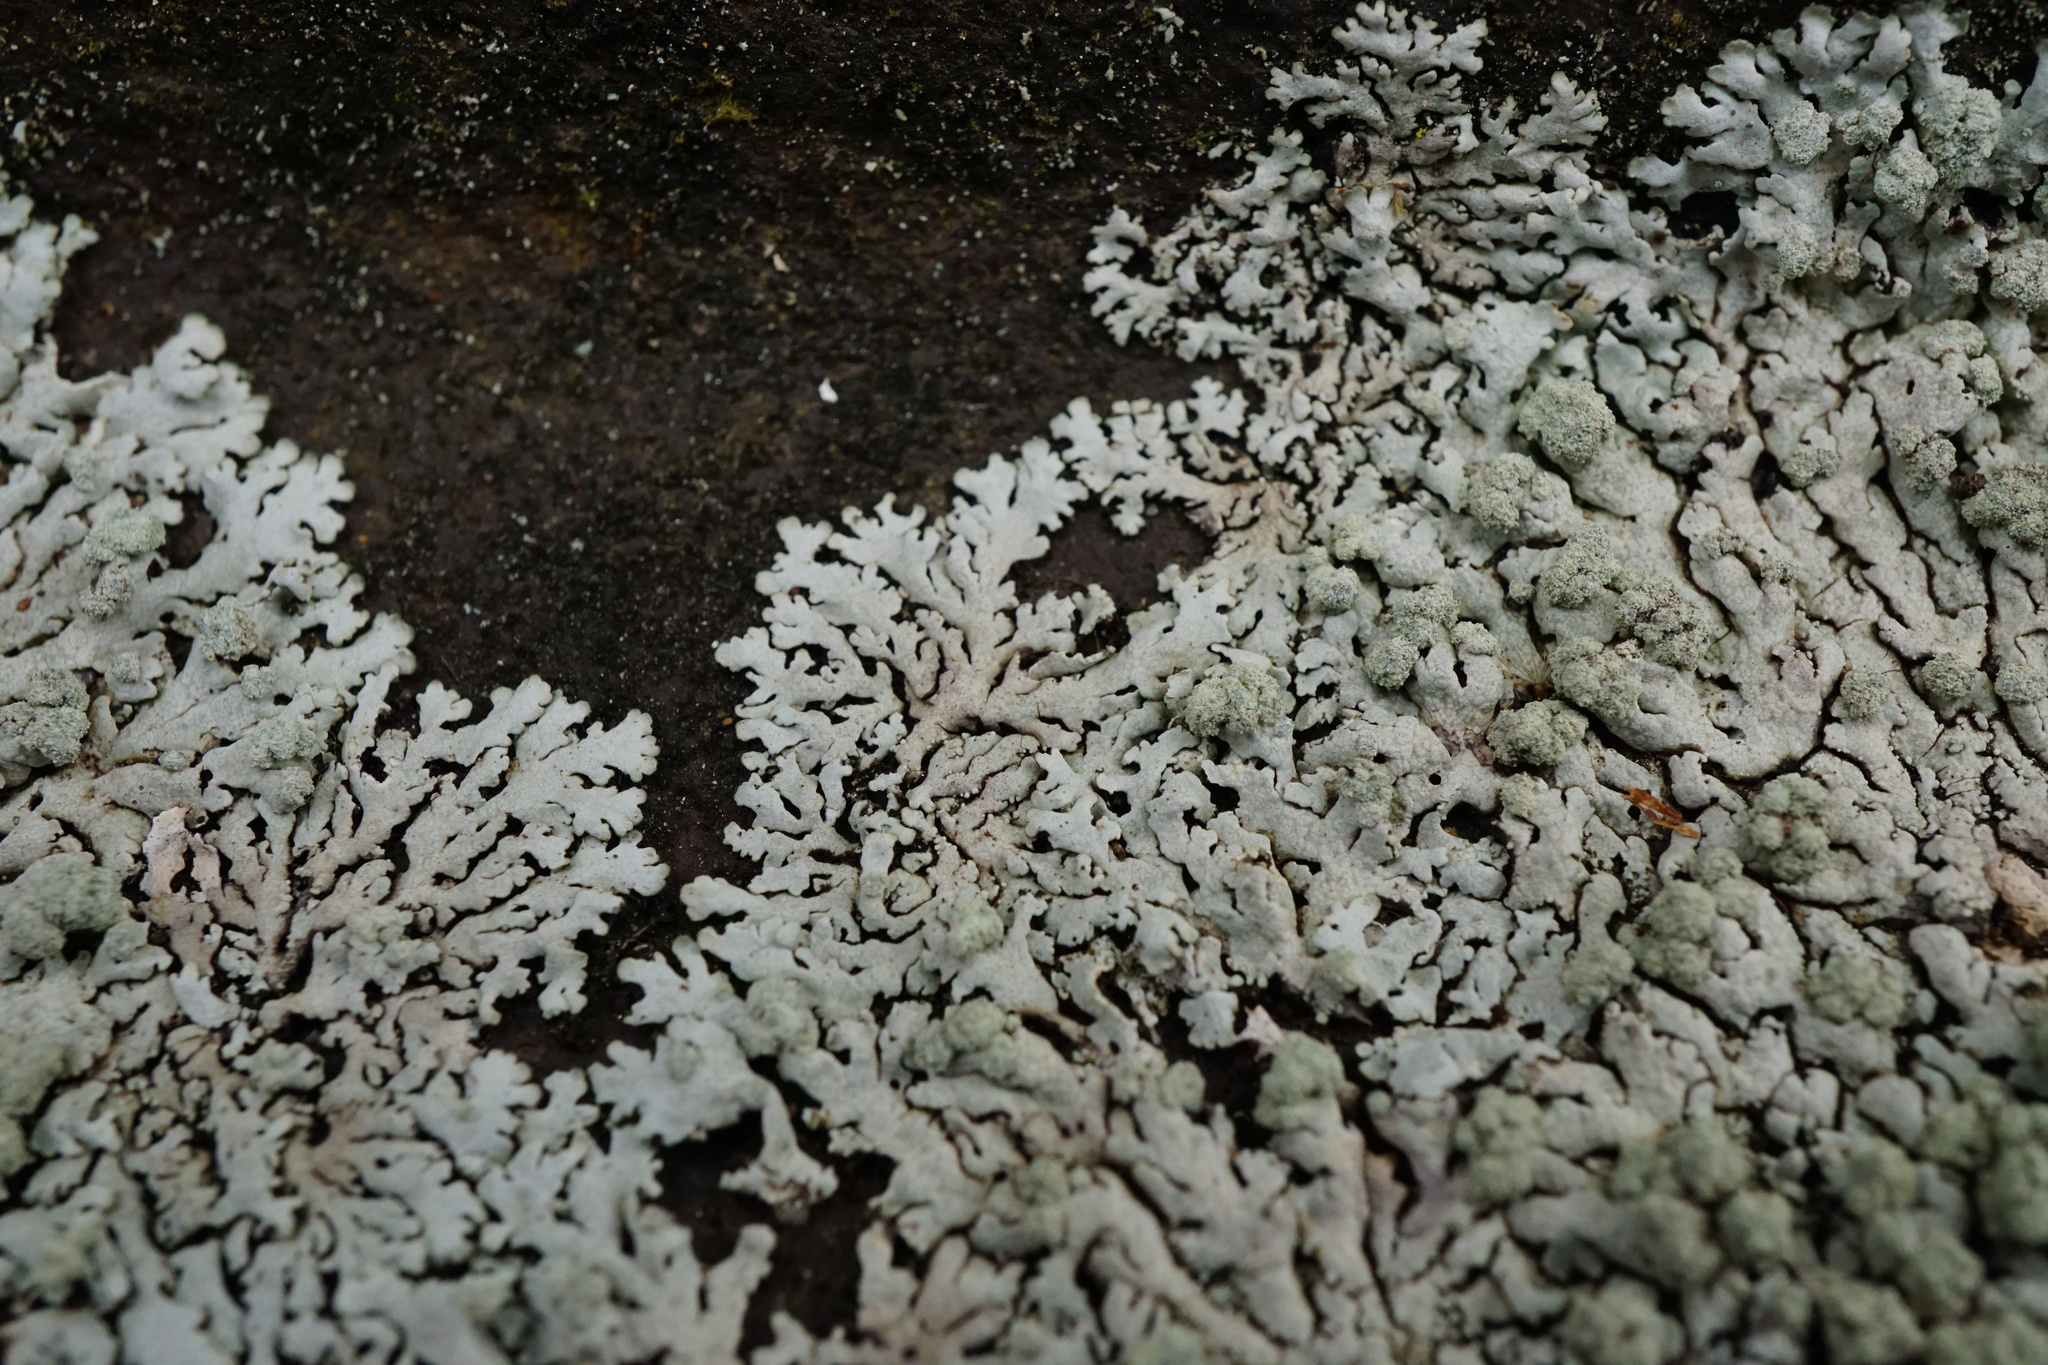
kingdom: Fungi
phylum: Ascomycota
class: Lecanoromycetes
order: Caliciales
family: Physciaceae
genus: Physcia
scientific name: Physcia caesia
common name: Blue-gray rosette lichen
